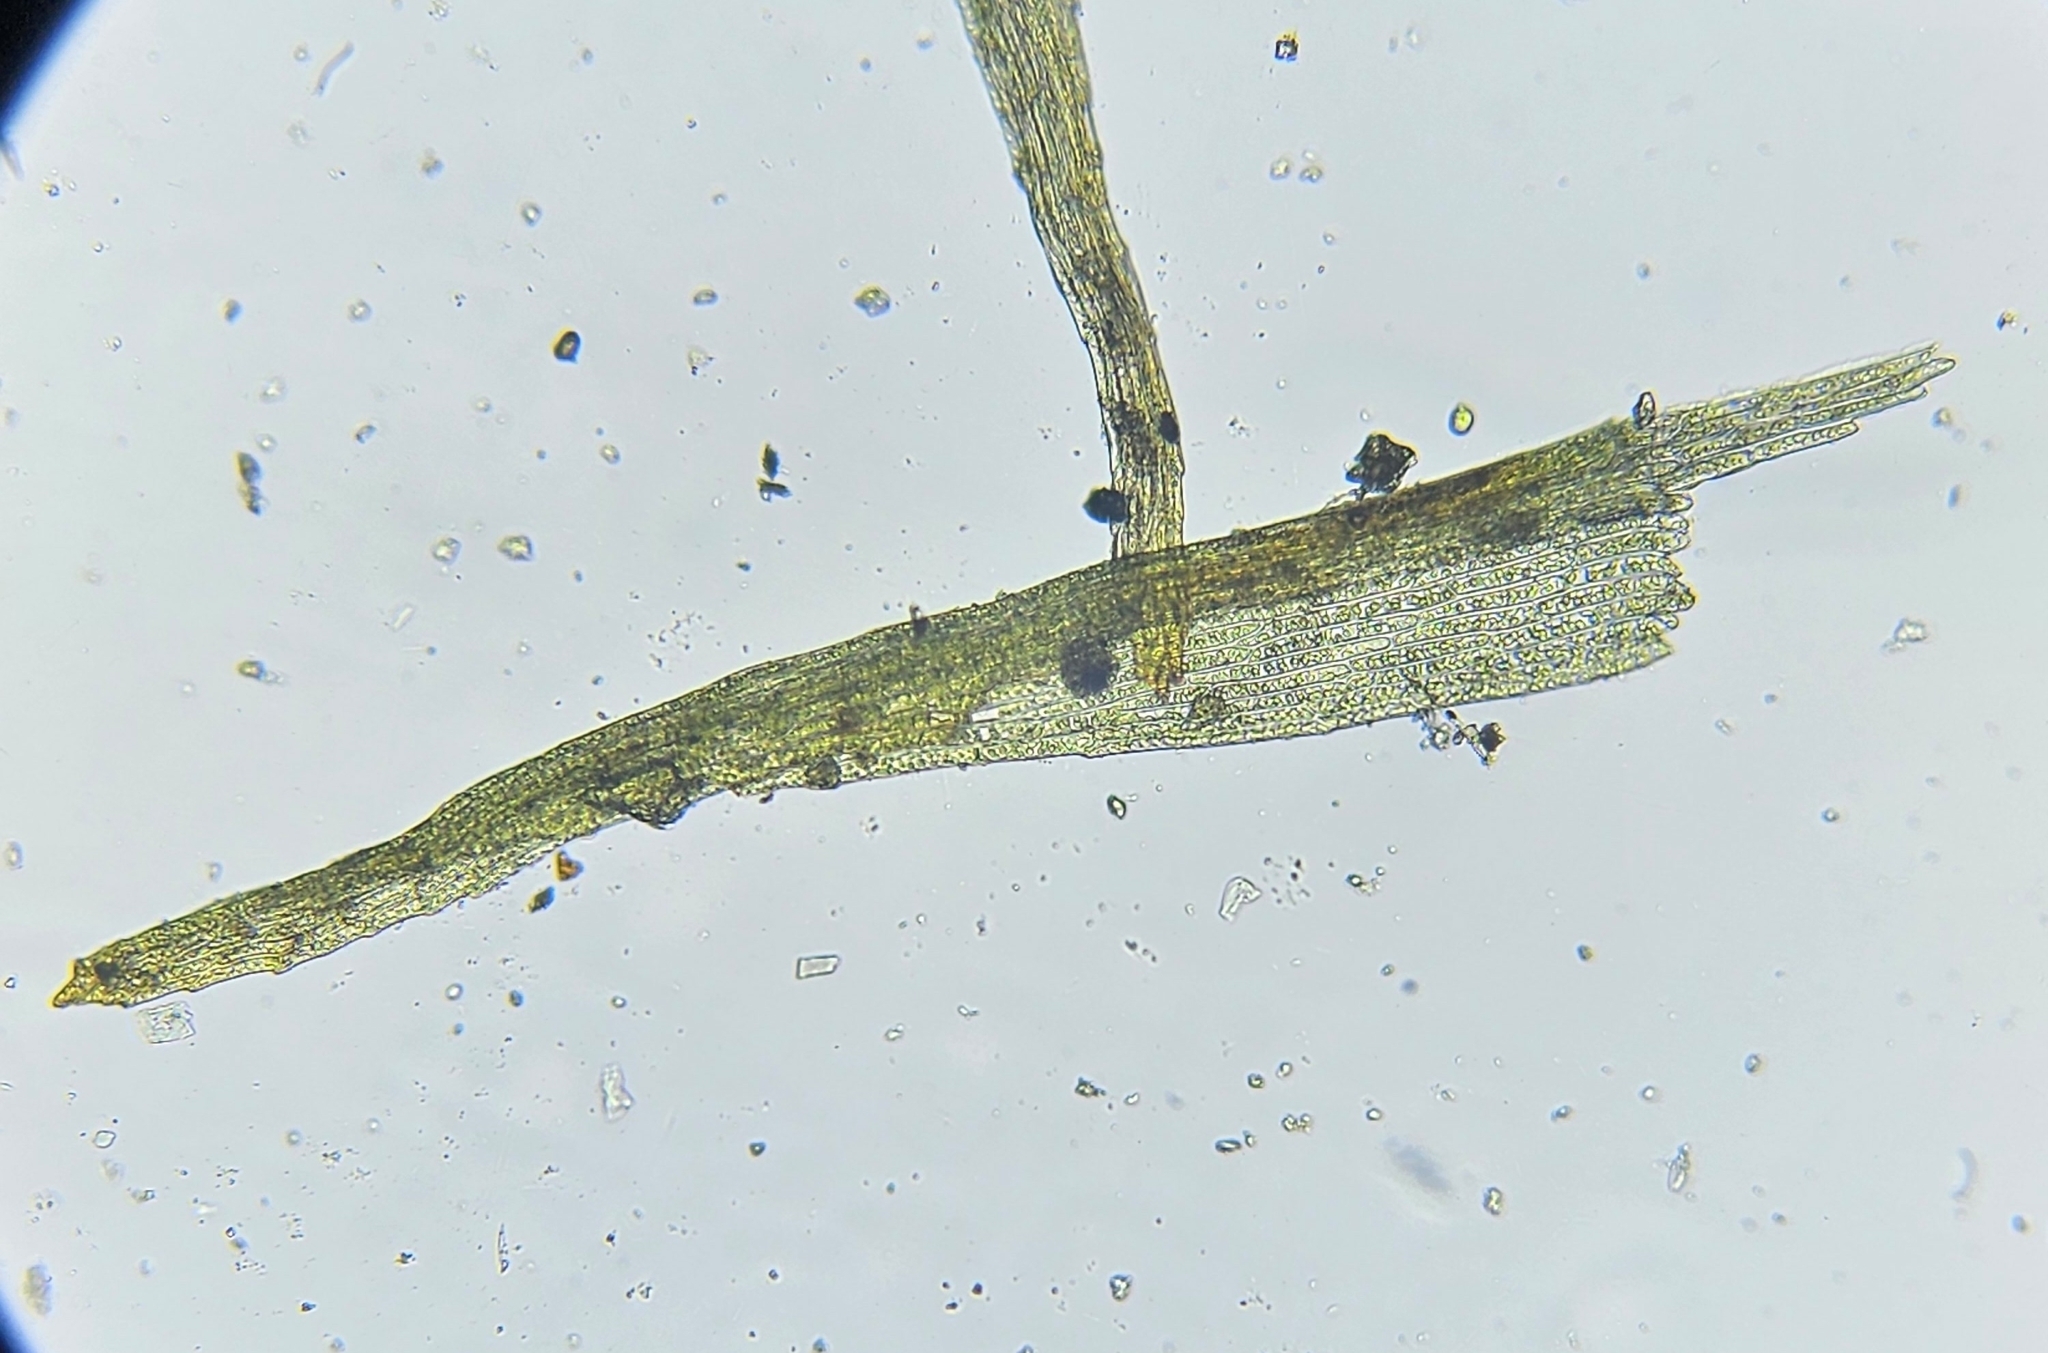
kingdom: Plantae
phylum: Bryophyta
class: Bryopsida
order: Dicranales
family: Dicranellaceae
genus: Dicranella
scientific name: Dicranella rufescens
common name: Red forklet moss
